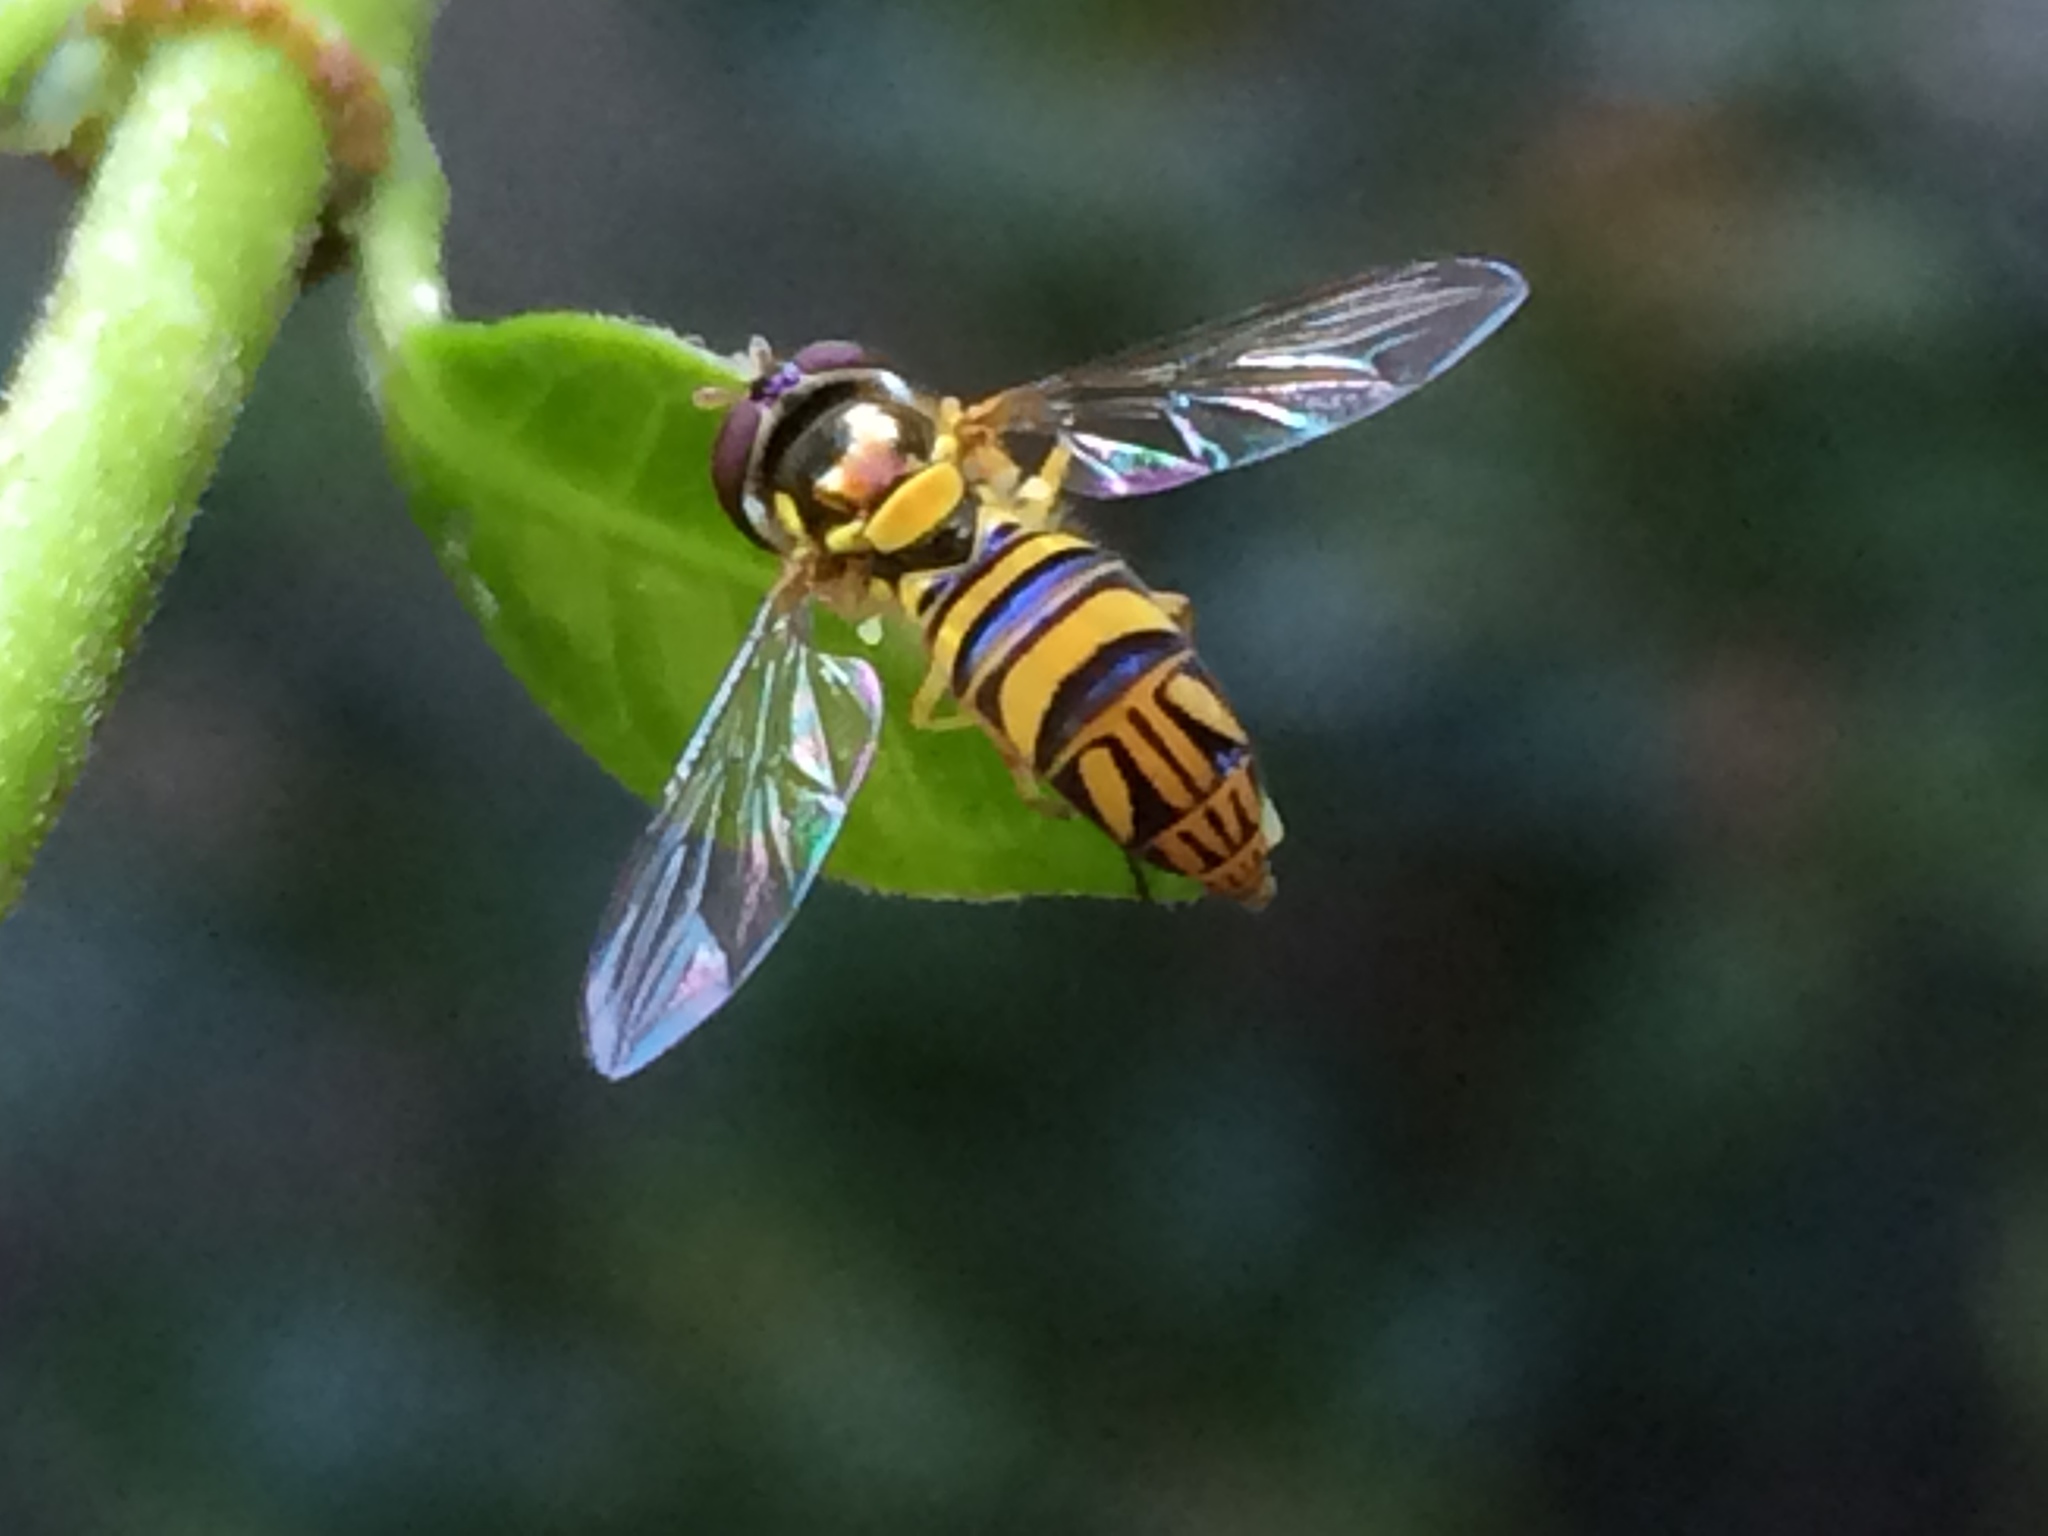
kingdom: Animalia
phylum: Arthropoda
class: Insecta
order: Diptera
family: Syrphidae
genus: Allograpta
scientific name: Allograpta obliqua
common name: Common oblique syrphid
